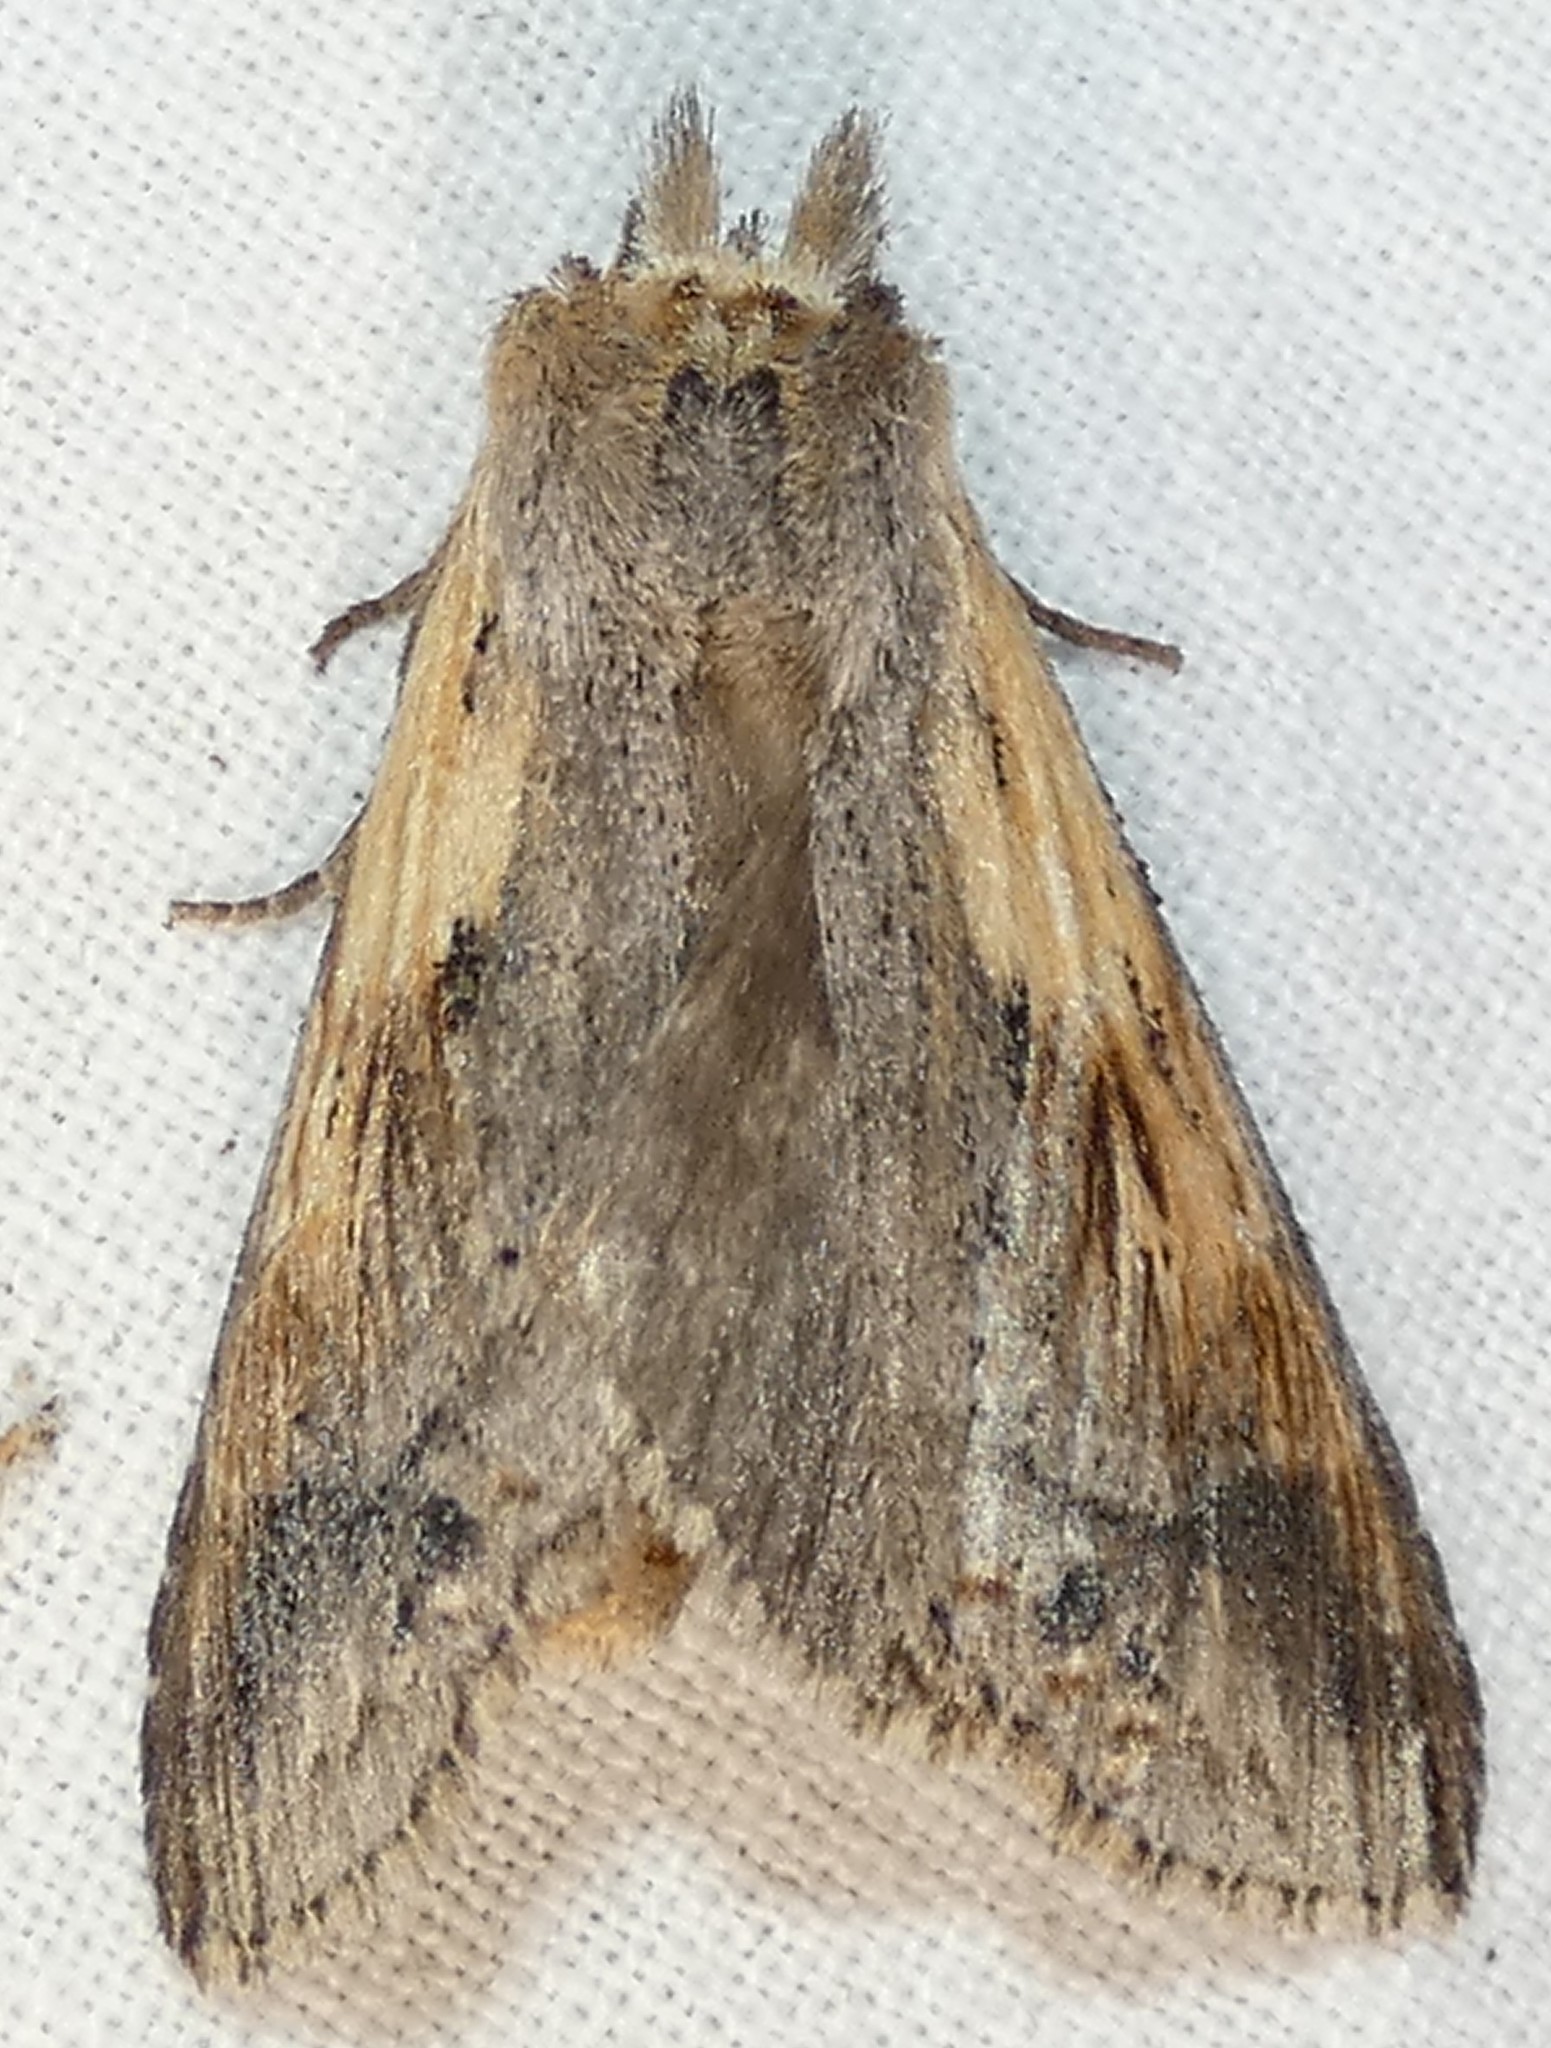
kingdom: Animalia
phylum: Arthropoda
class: Insecta
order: Lepidoptera
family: Notodontidae
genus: Dasylophia
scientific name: Dasylophia anguina
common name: Black-spotted prominent
